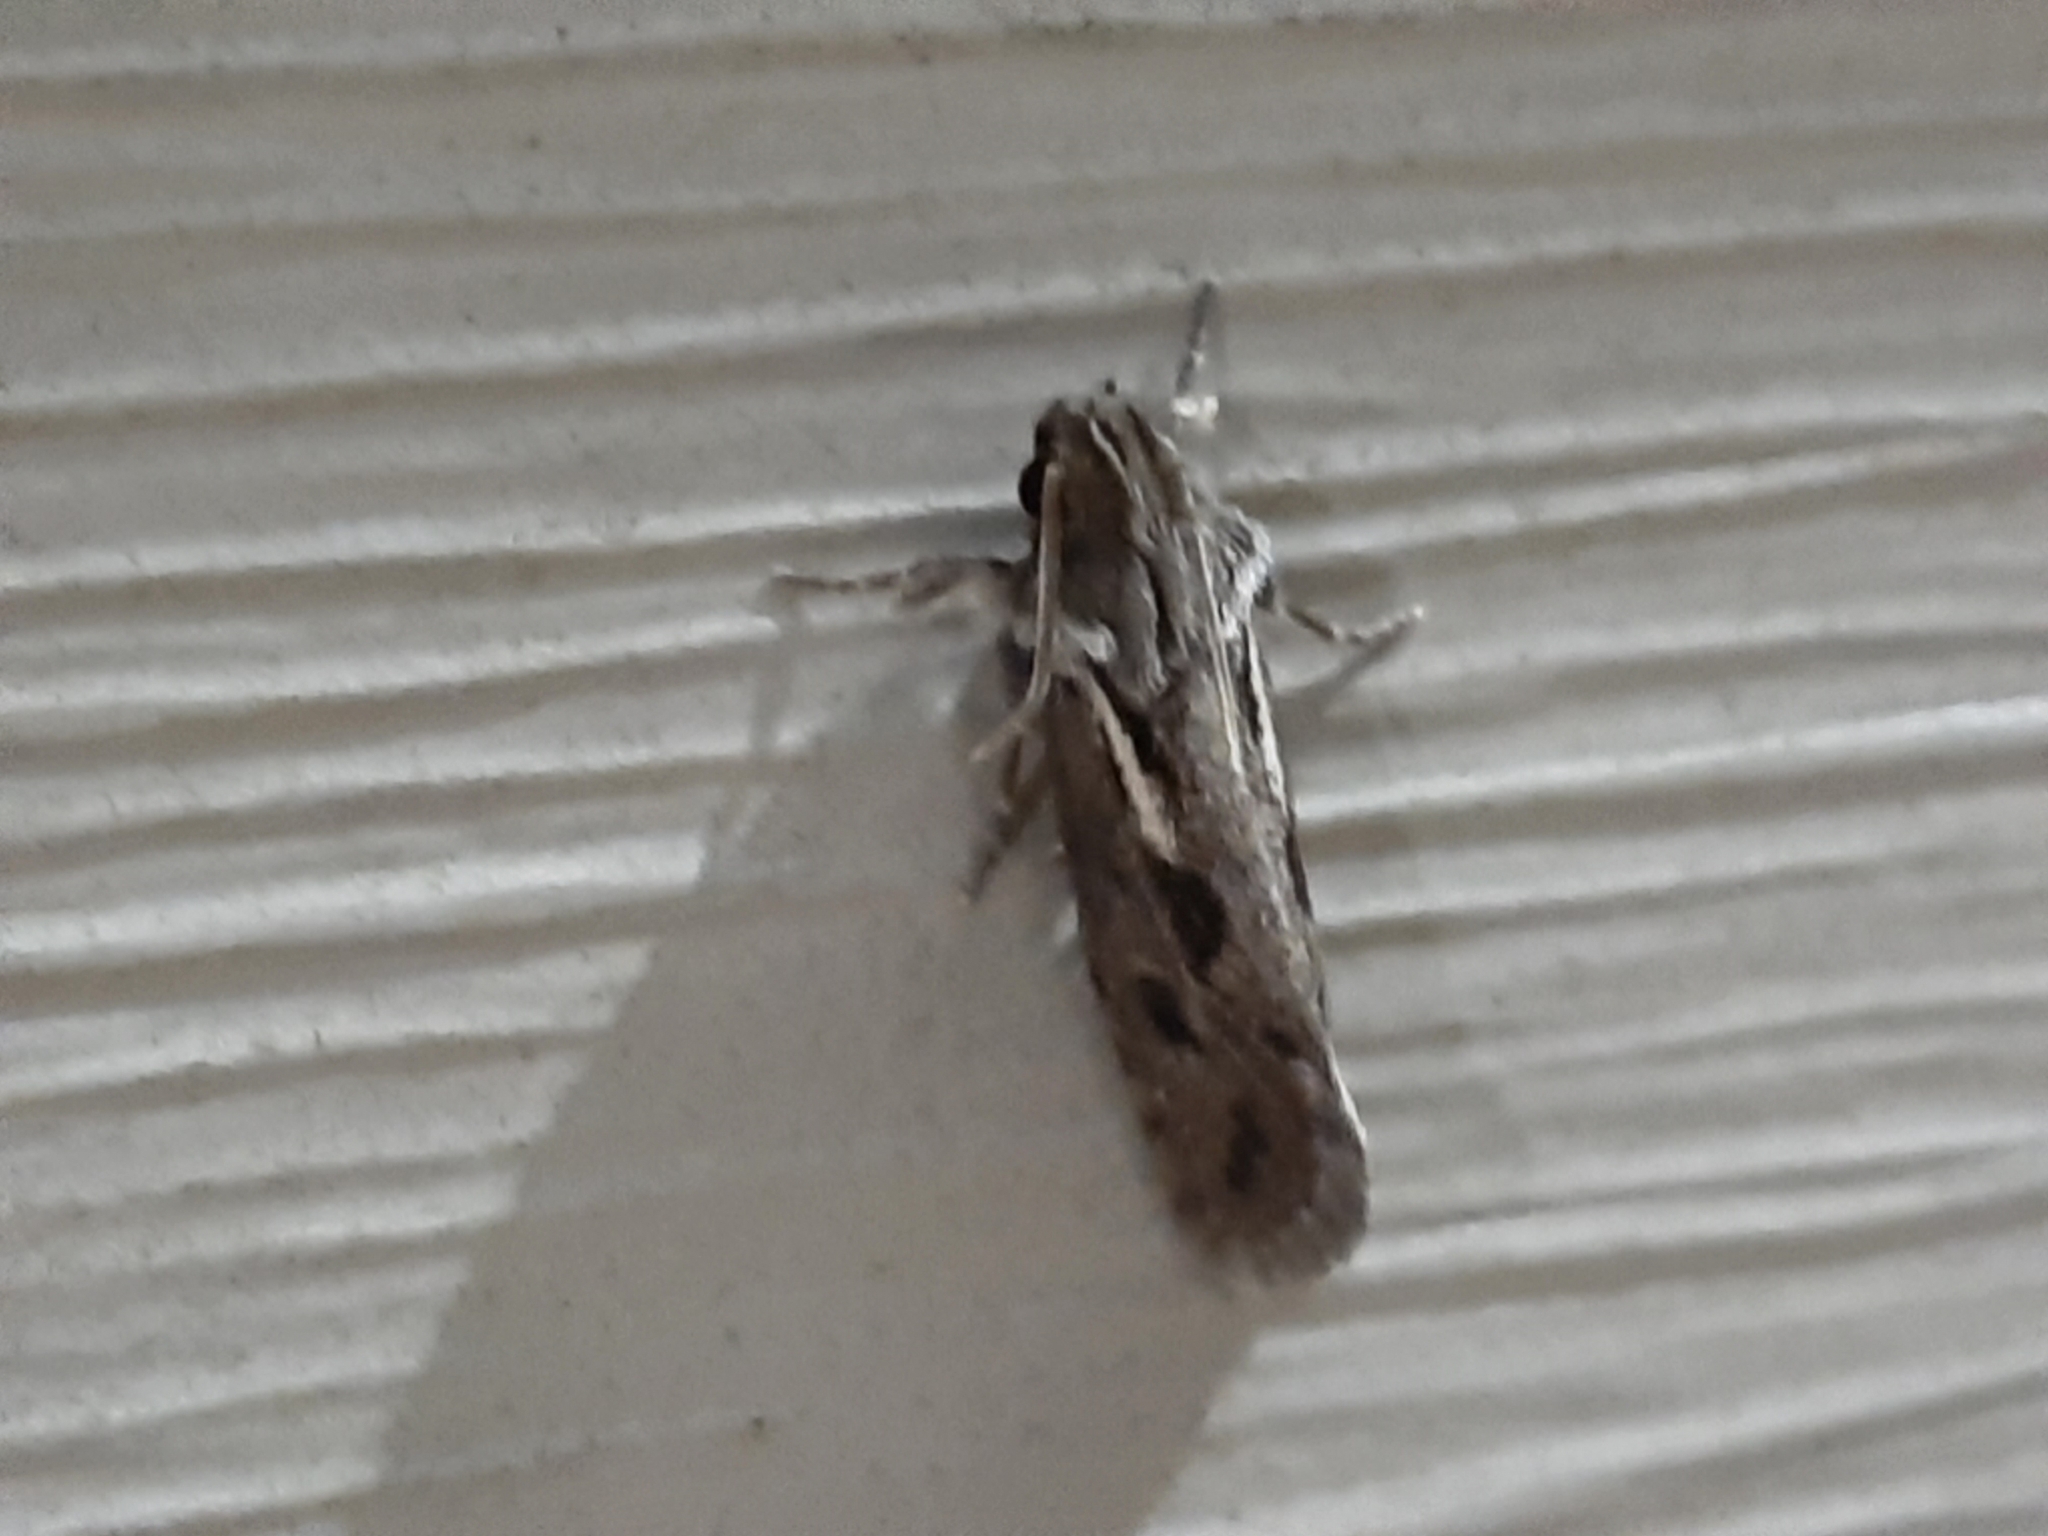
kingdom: Animalia
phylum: Arthropoda
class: Insecta
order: Lepidoptera
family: Tineidae
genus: Acrolophus
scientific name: Acrolophus popeanella
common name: Clemens' grass tubeworm moth
